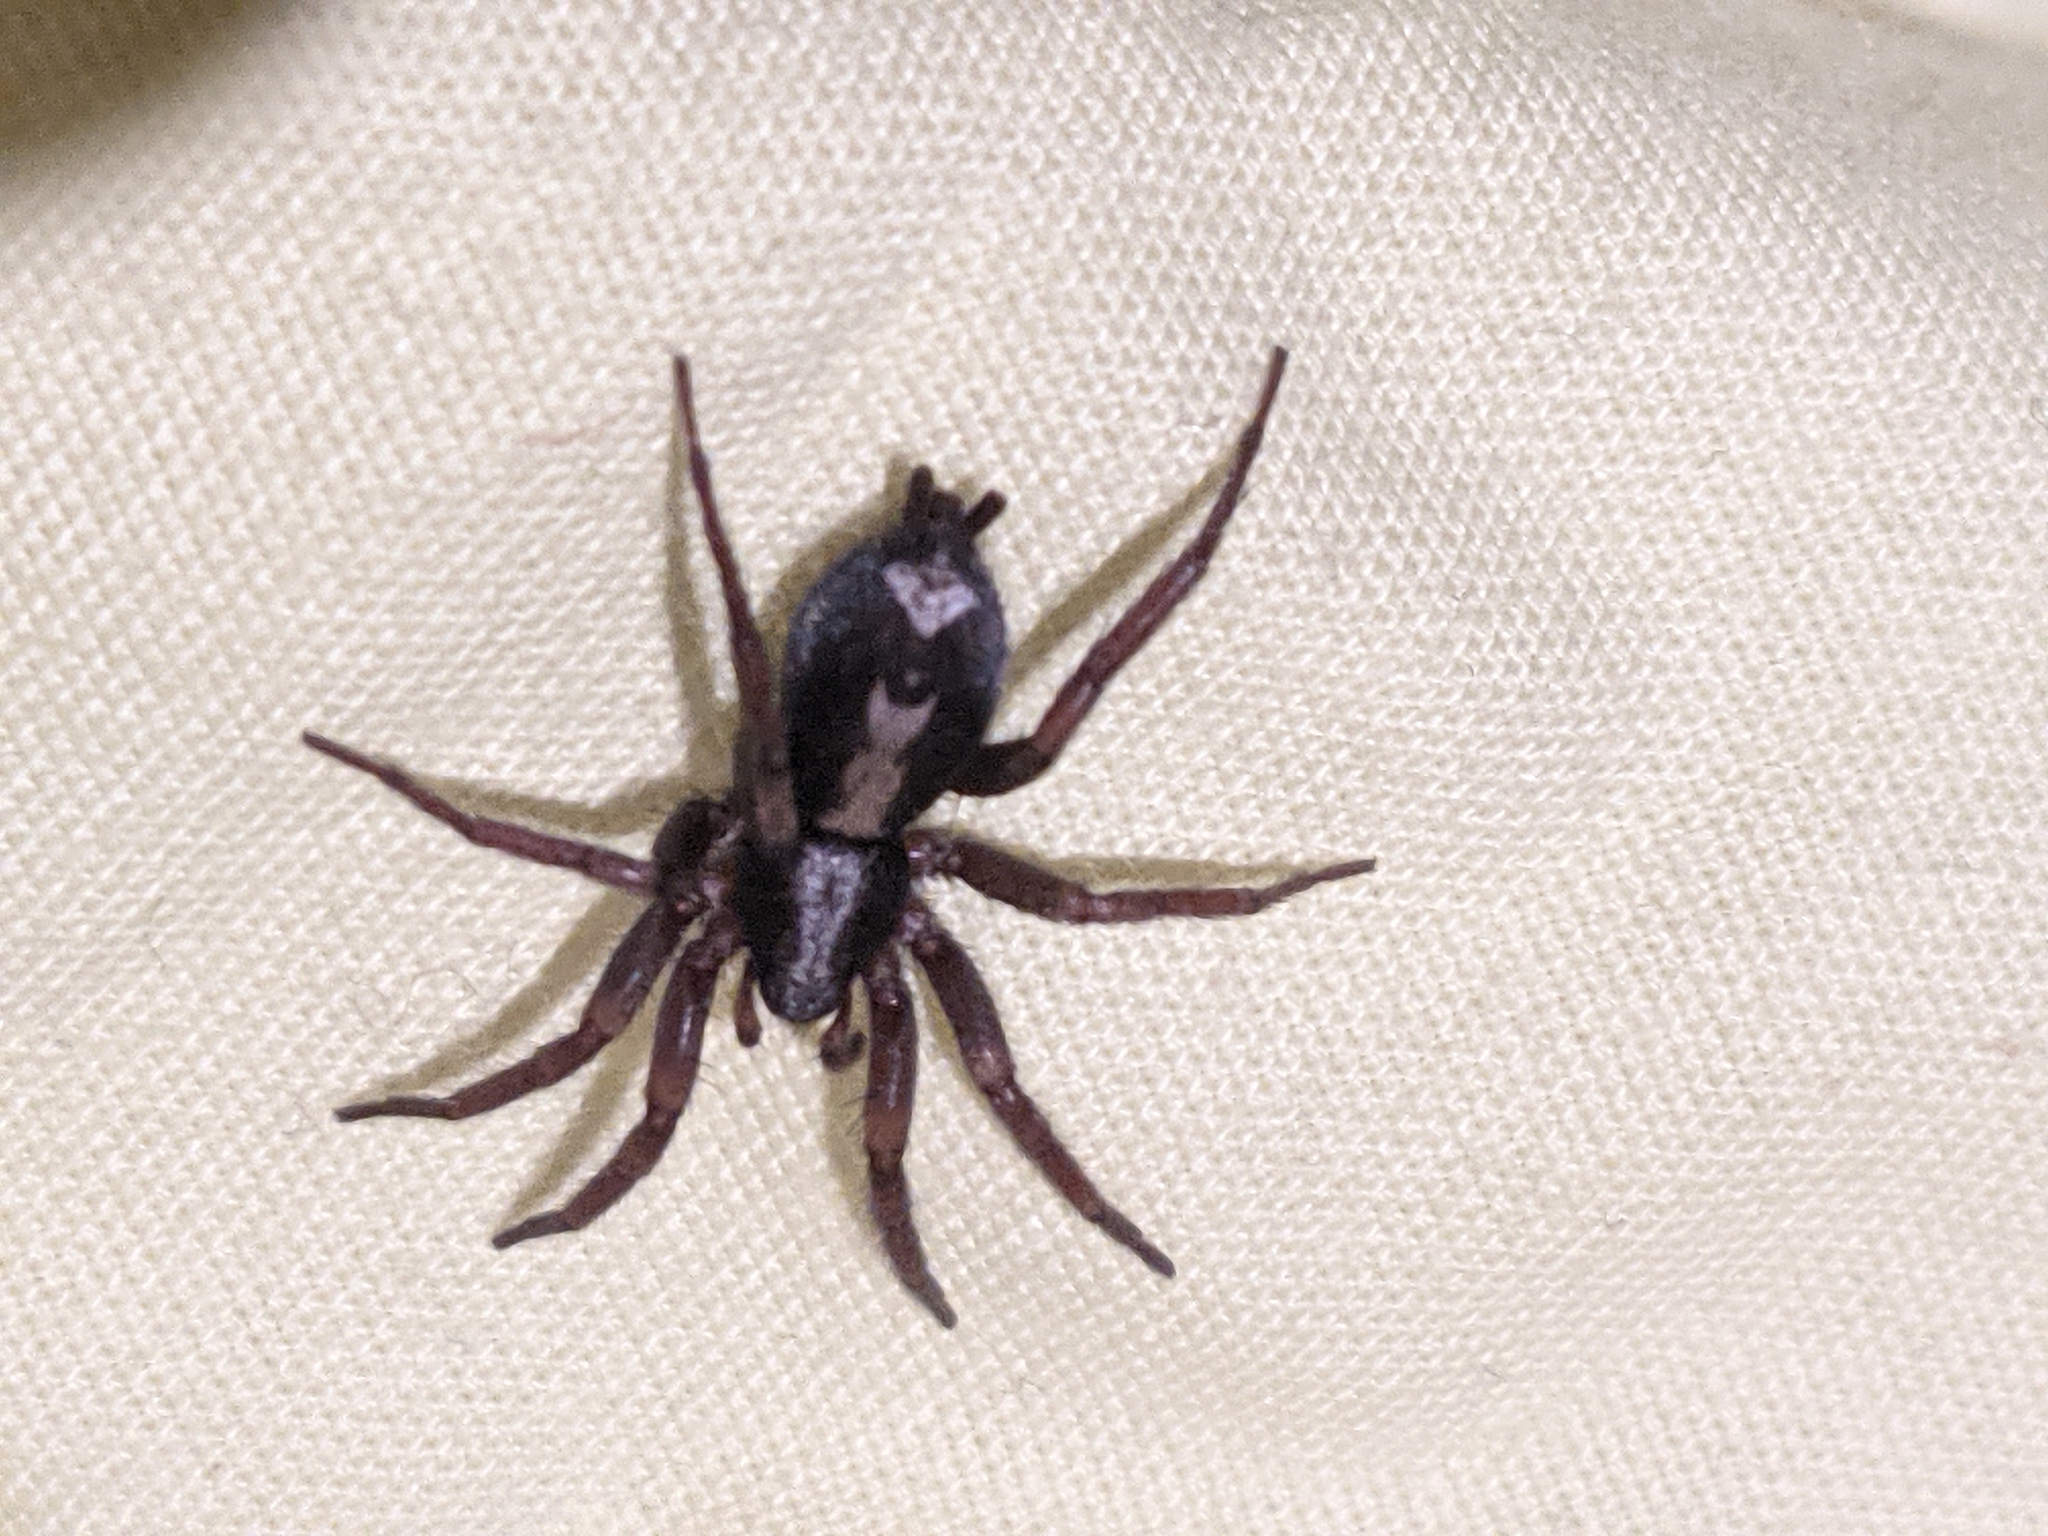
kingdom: Animalia
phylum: Arthropoda
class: Arachnida
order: Araneae
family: Gnaphosidae
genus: Herpyllus
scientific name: Herpyllus ecclesiasticus
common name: Eastern parson spider
